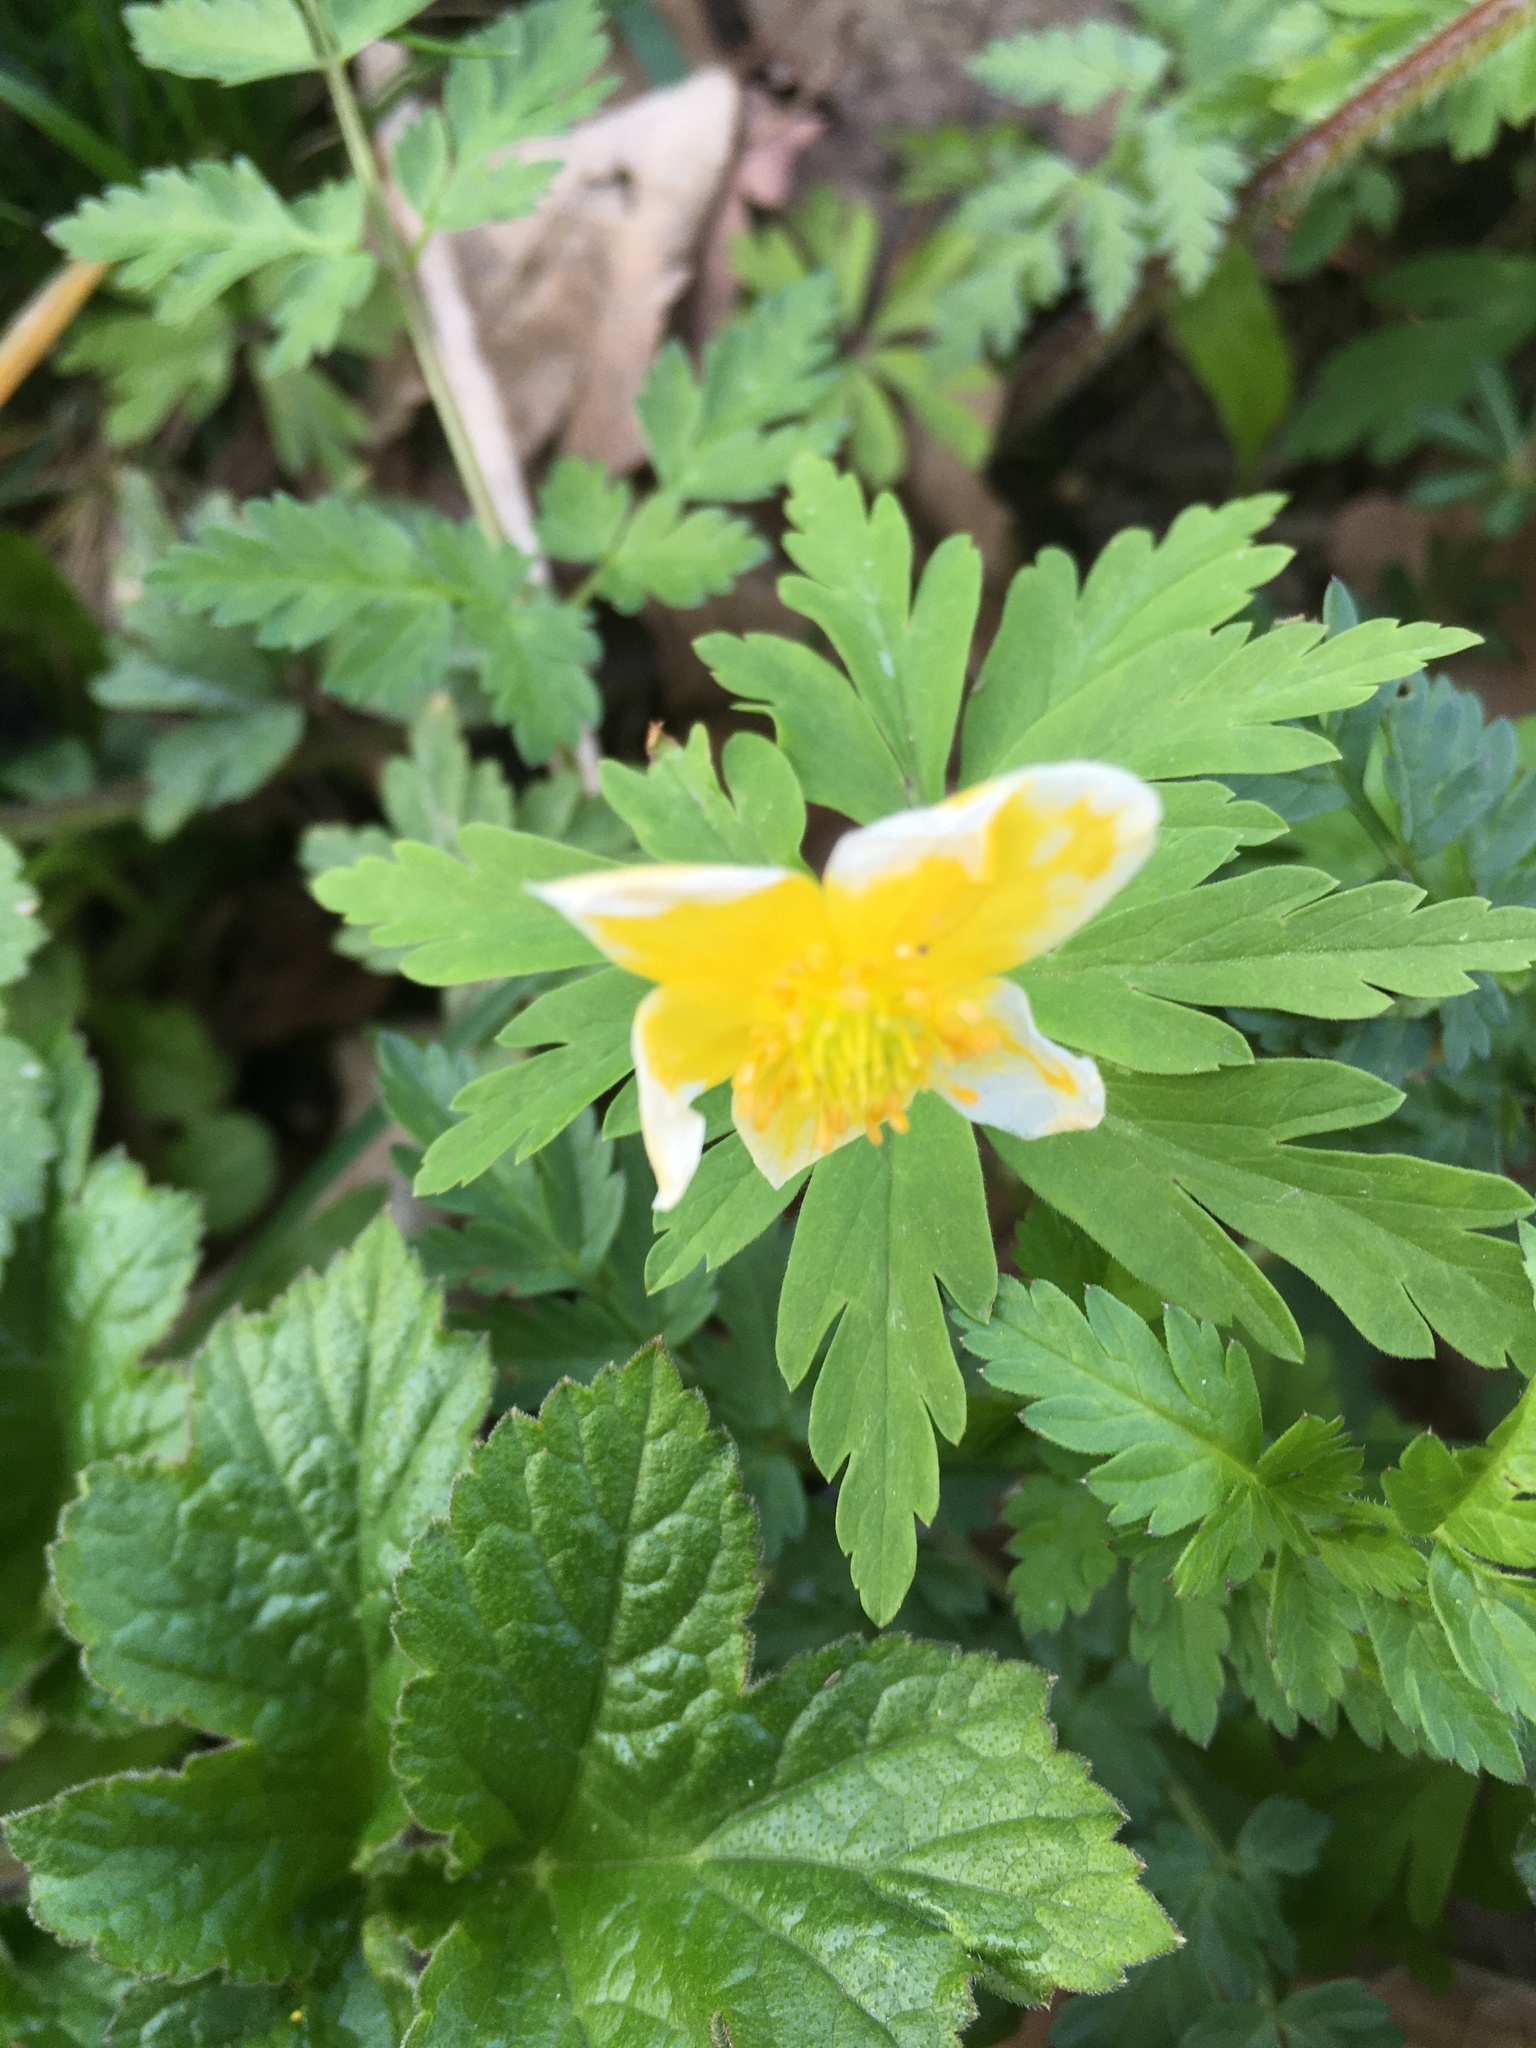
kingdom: Plantae
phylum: Tracheophyta
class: Magnoliopsida
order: Ranunculales
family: Ranunculaceae
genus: Anemone
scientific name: Anemone ranunculoides
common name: Yellow anemone
